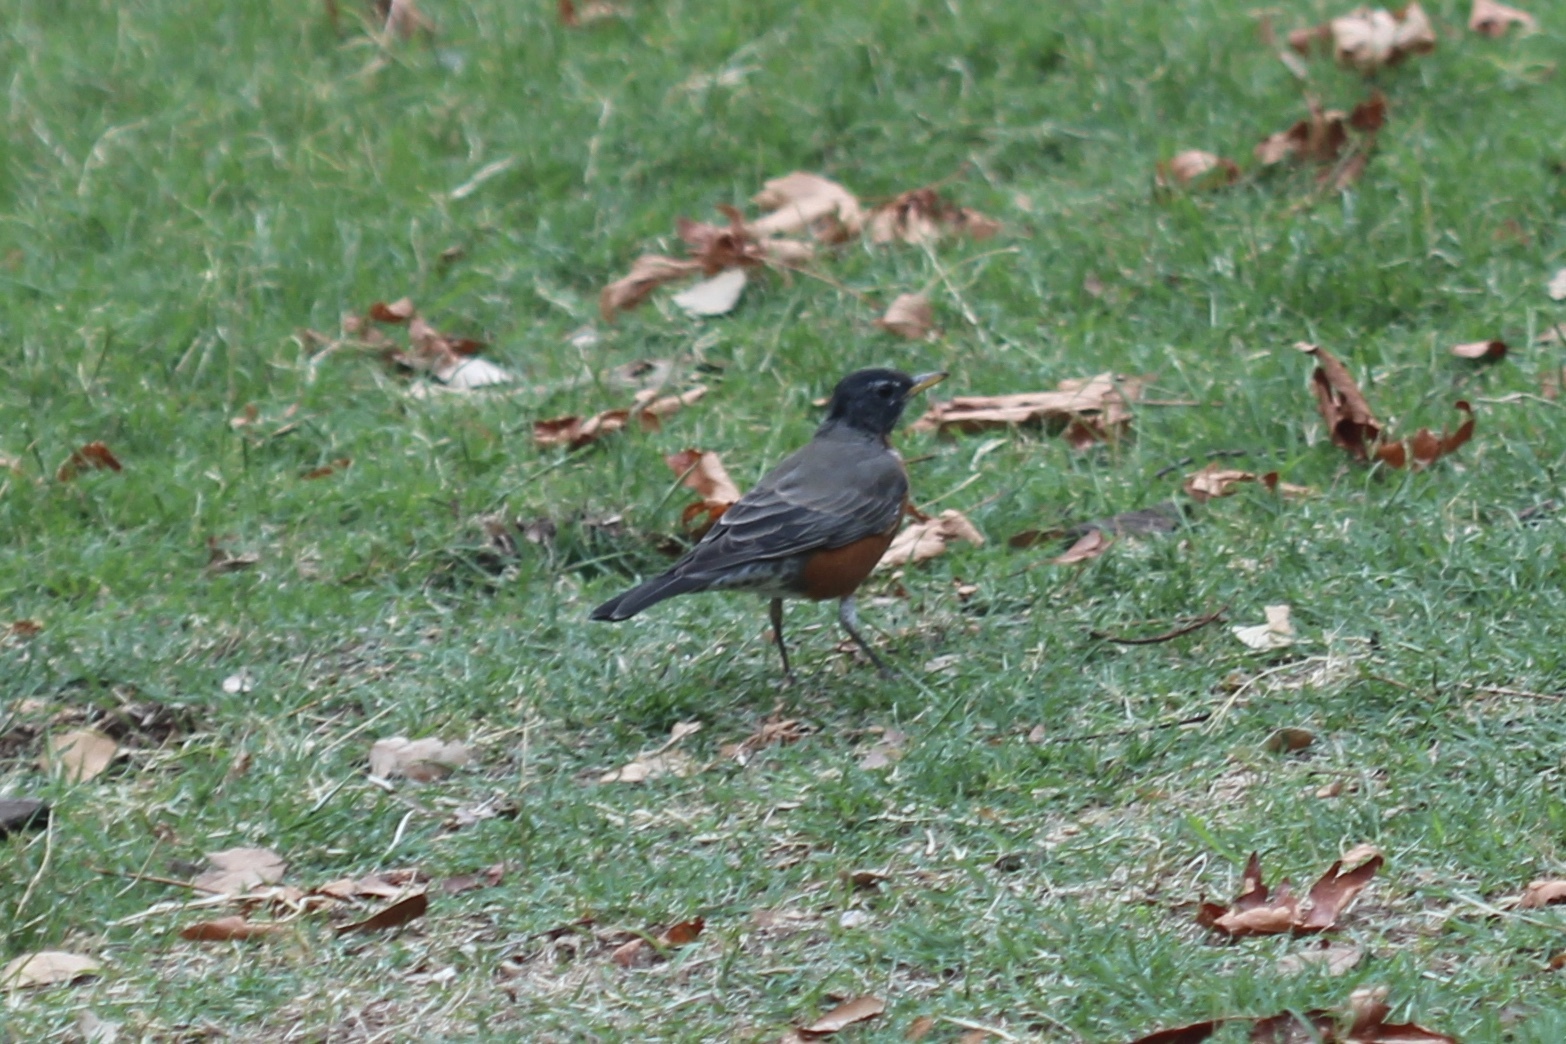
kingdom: Animalia
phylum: Chordata
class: Aves
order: Passeriformes
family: Turdidae
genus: Turdus
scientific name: Turdus migratorius
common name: American robin
